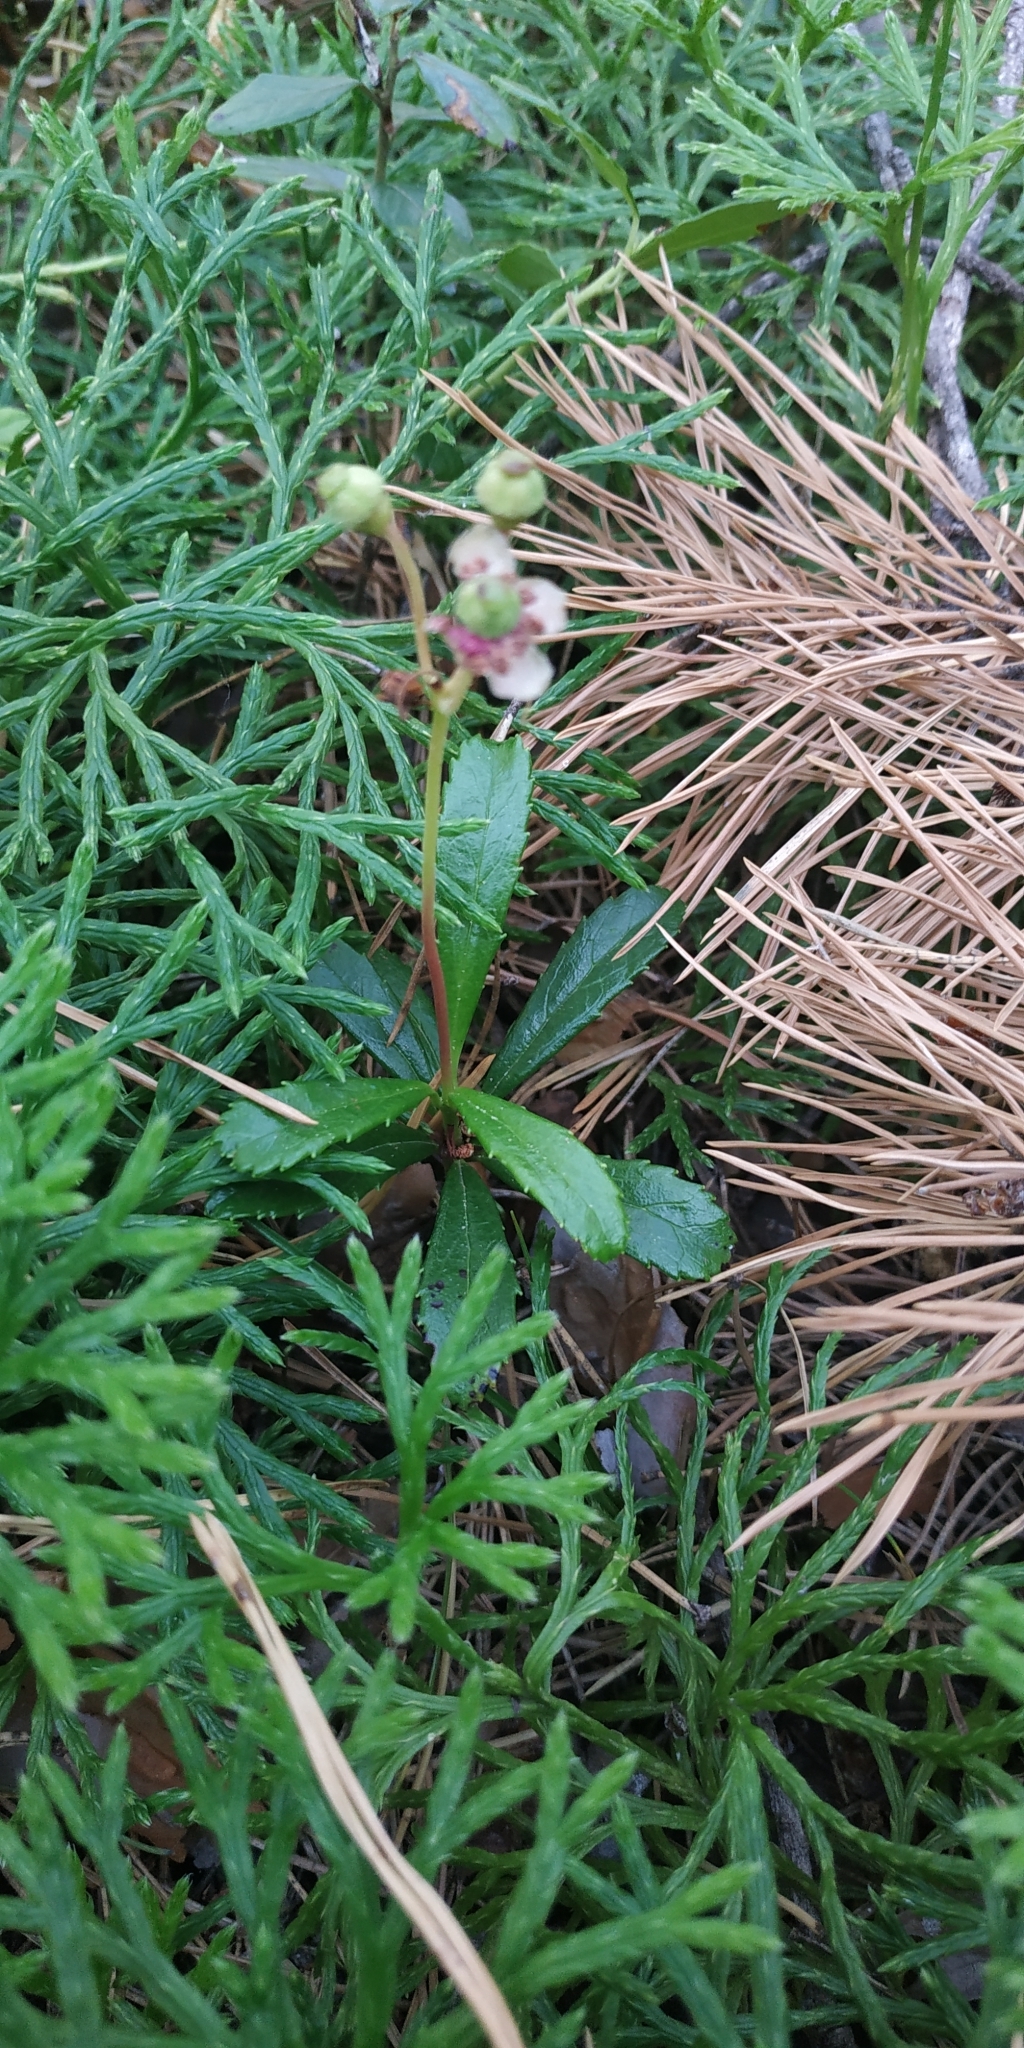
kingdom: Plantae
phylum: Tracheophyta
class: Magnoliopsida
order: Ericales
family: Ericaceae
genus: Chimaphila
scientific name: Chimaphila umbellata
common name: Pipsissewa
